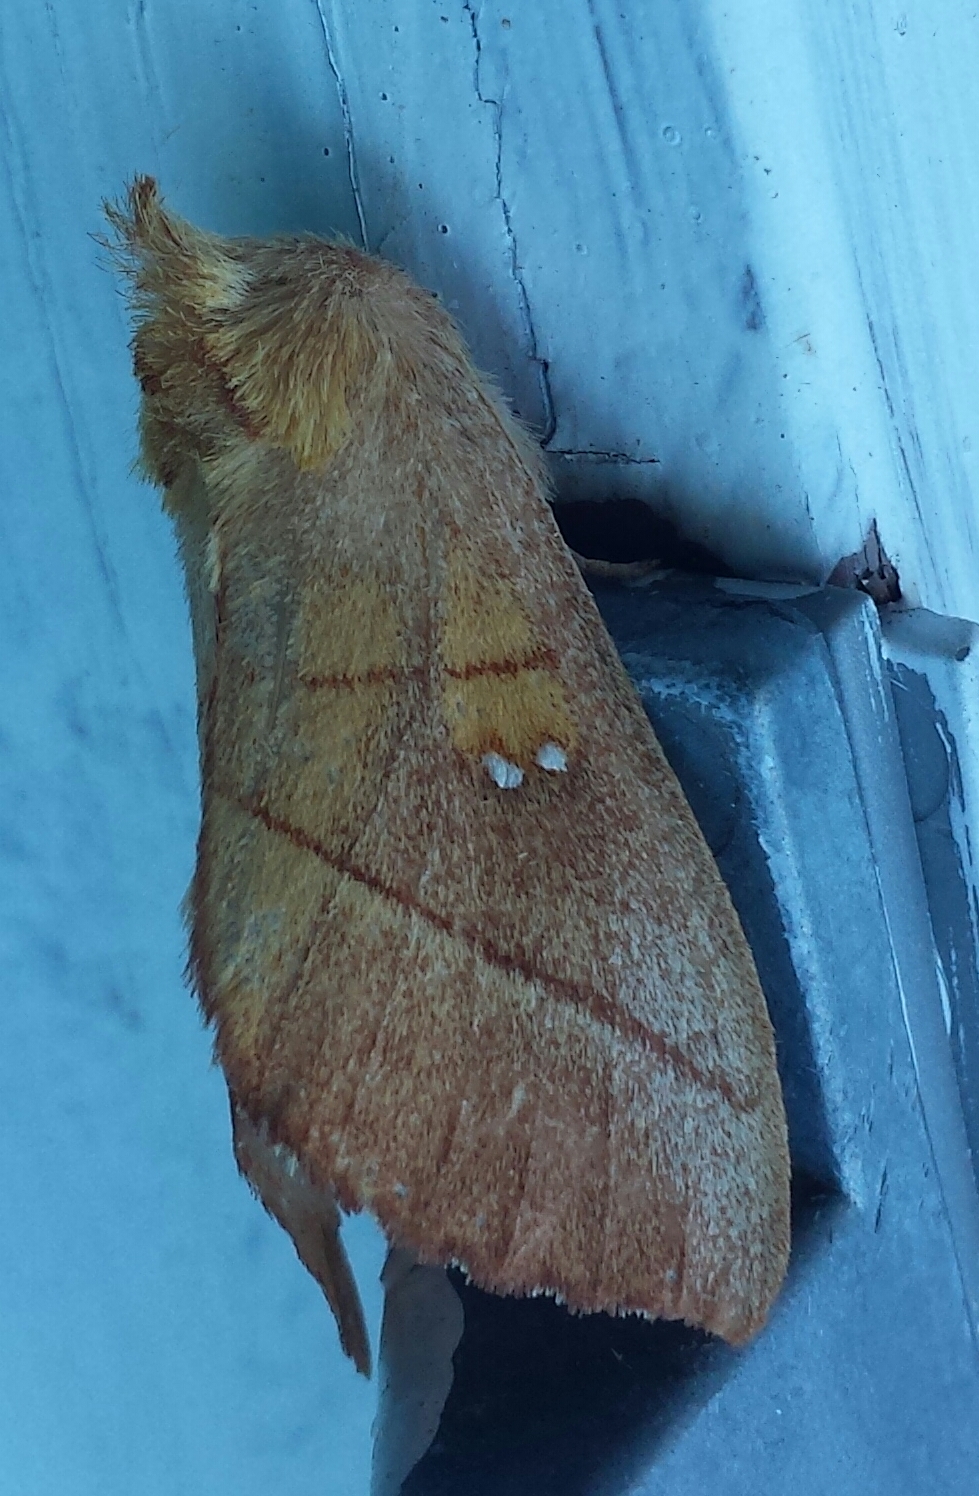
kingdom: Animalia
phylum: Arthropoda
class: Insecta
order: Lepidoptera
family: Notodontidae
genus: Nadata
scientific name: Nadata gibbosa
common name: White-dotted prominent
